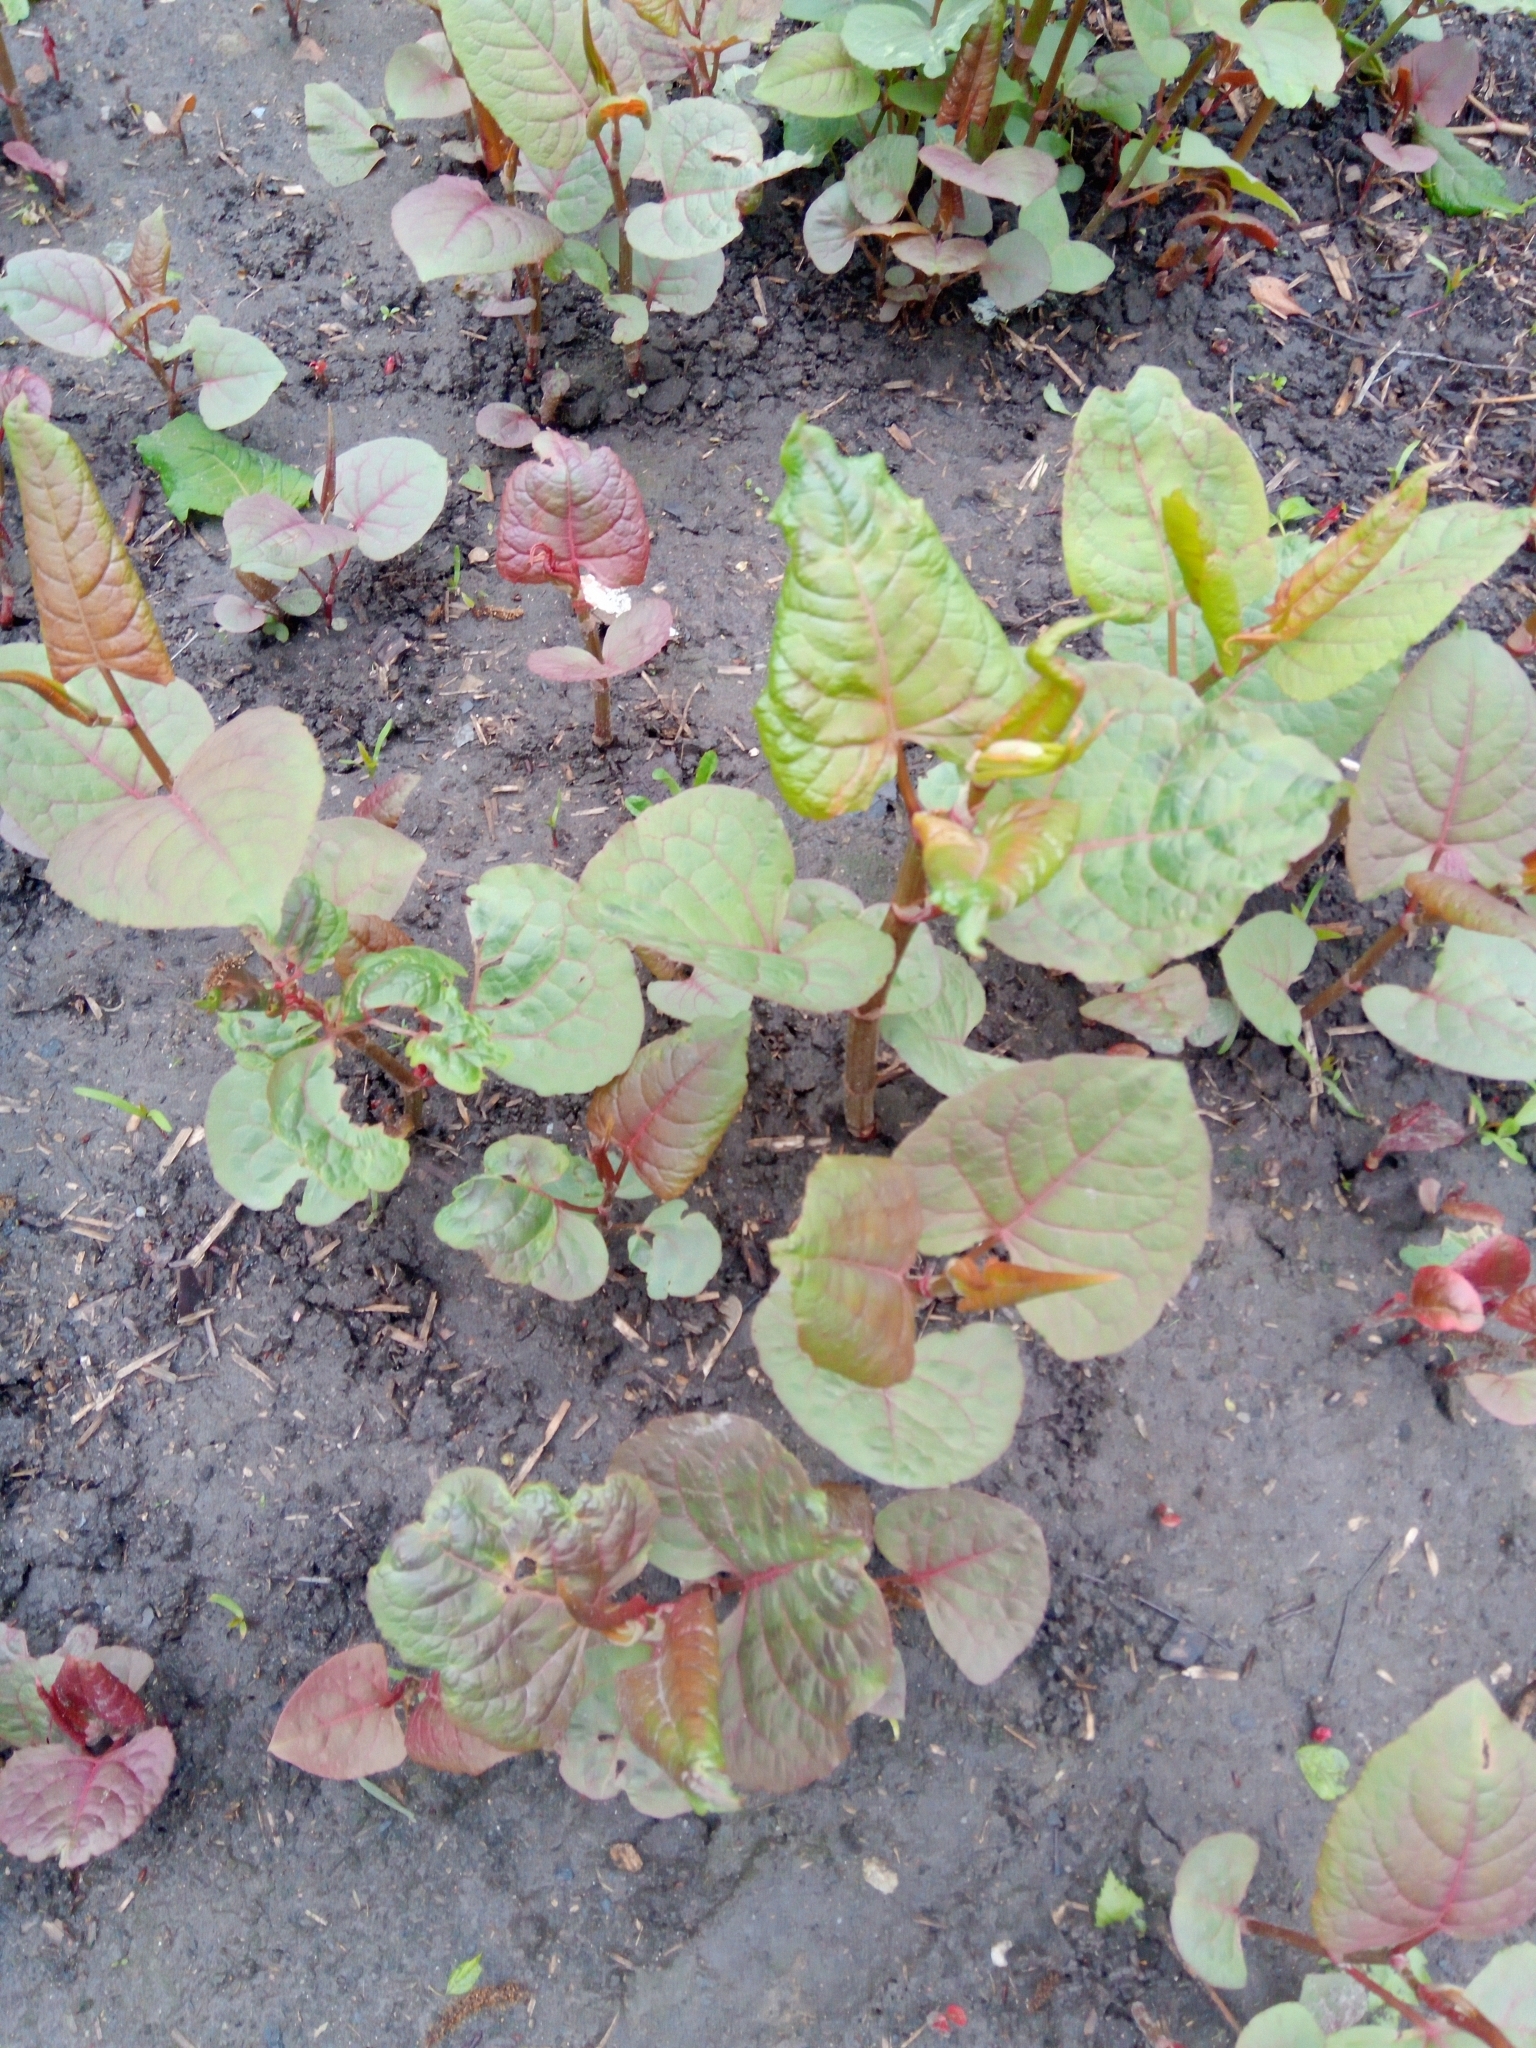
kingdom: Plantae
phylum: Tracheophyta
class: Magnoliopsida
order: Caryophyllales
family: Polygonaceae
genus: Reynoutria
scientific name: Reynoutria bohemica
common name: Bohemian knotweed
